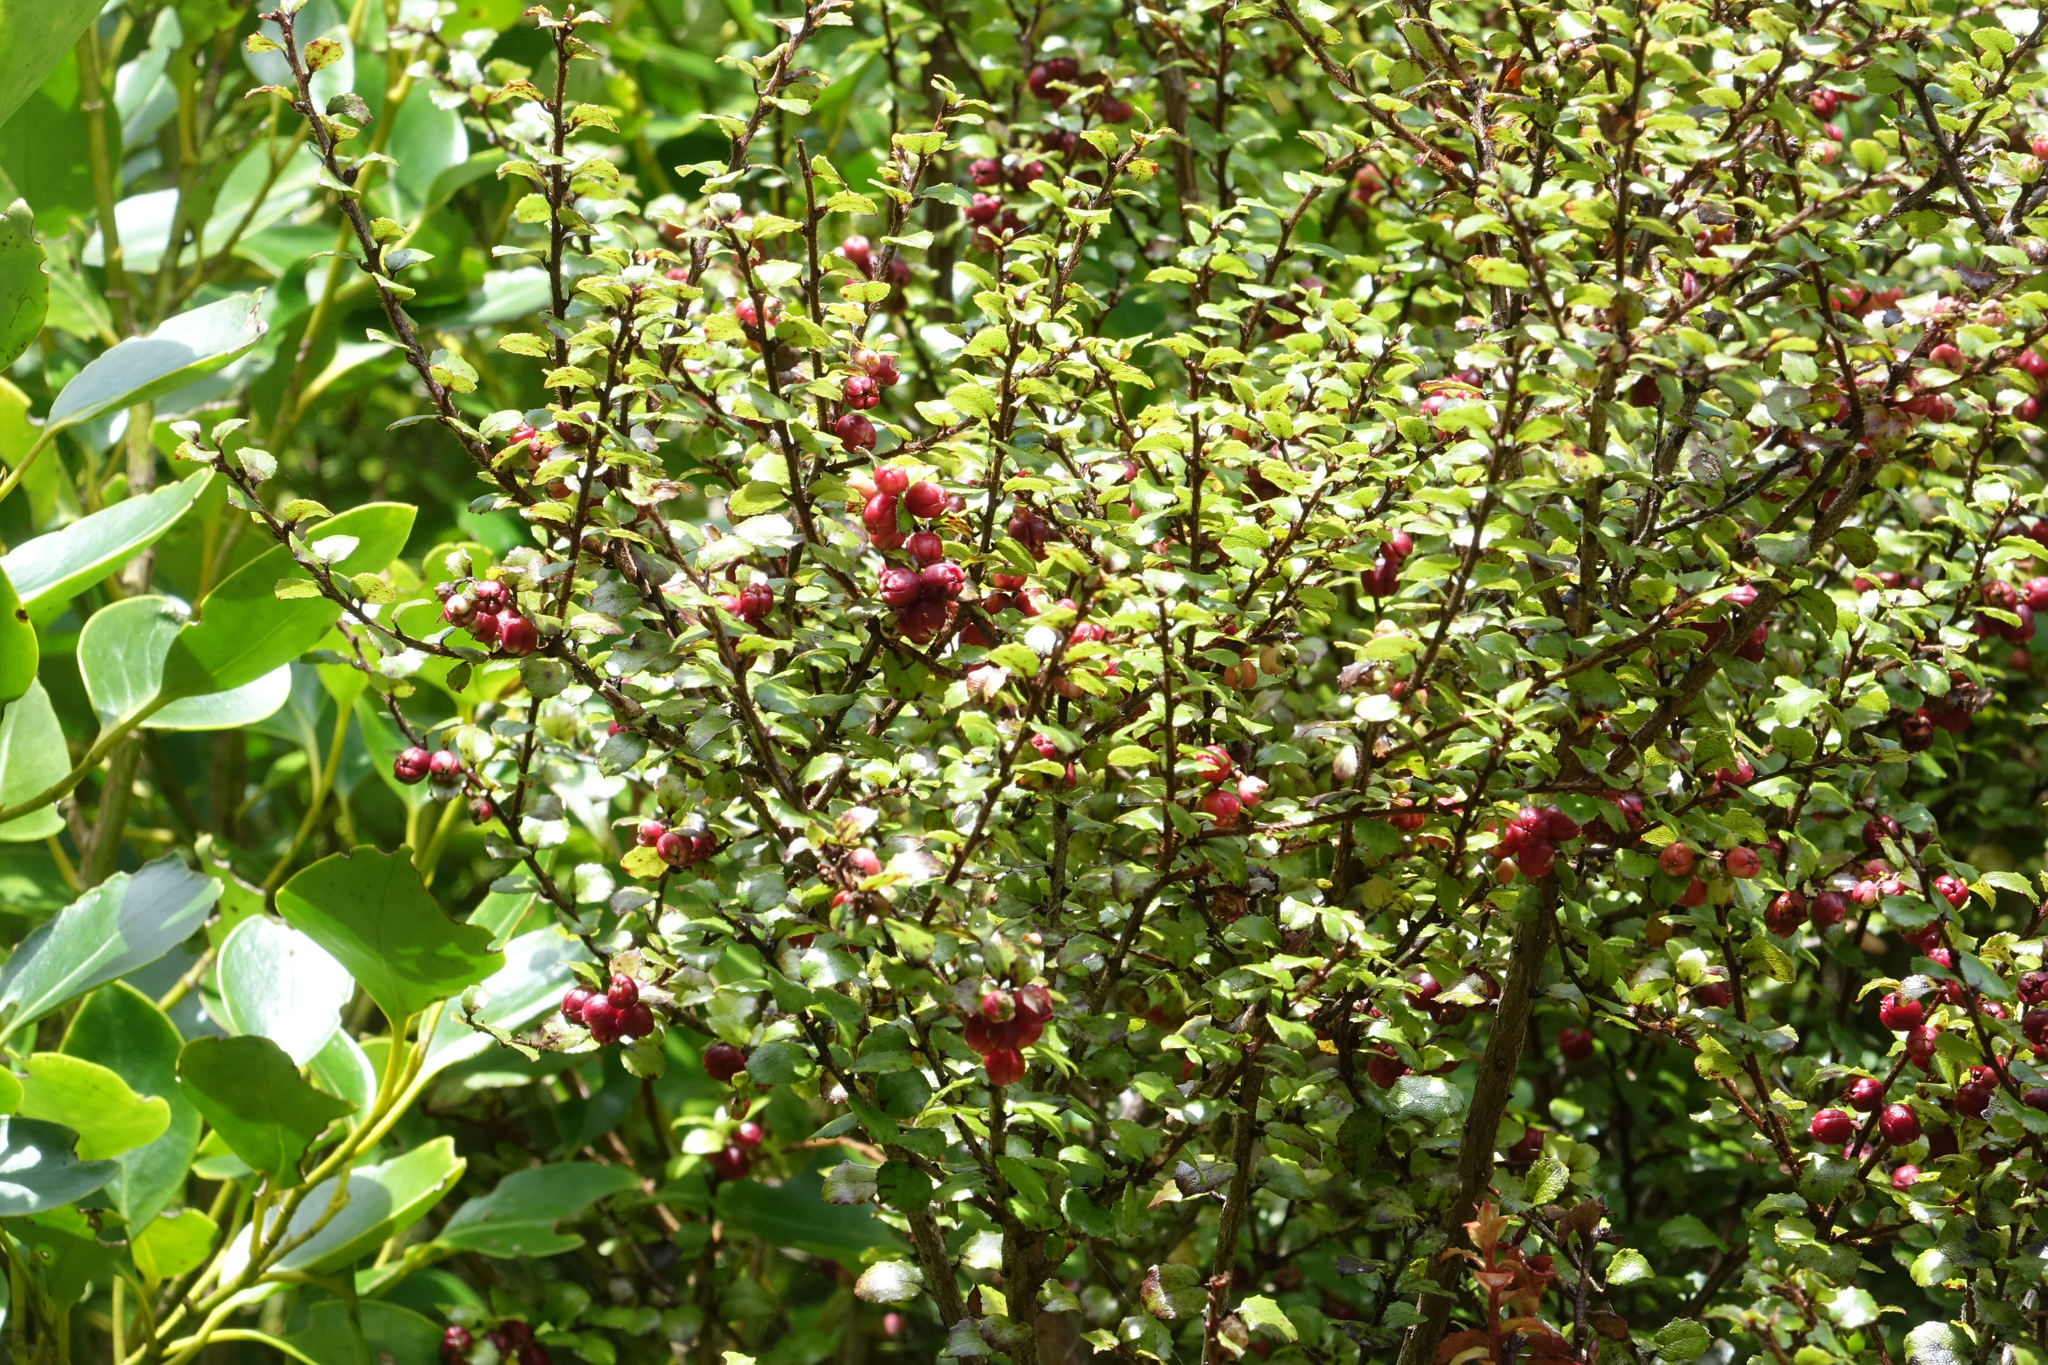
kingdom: Plantae
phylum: Tracheophyta
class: Magnoliopsida
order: Ericales
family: Ericaceae
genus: Gaultheria
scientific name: Gaultheria antipoda
